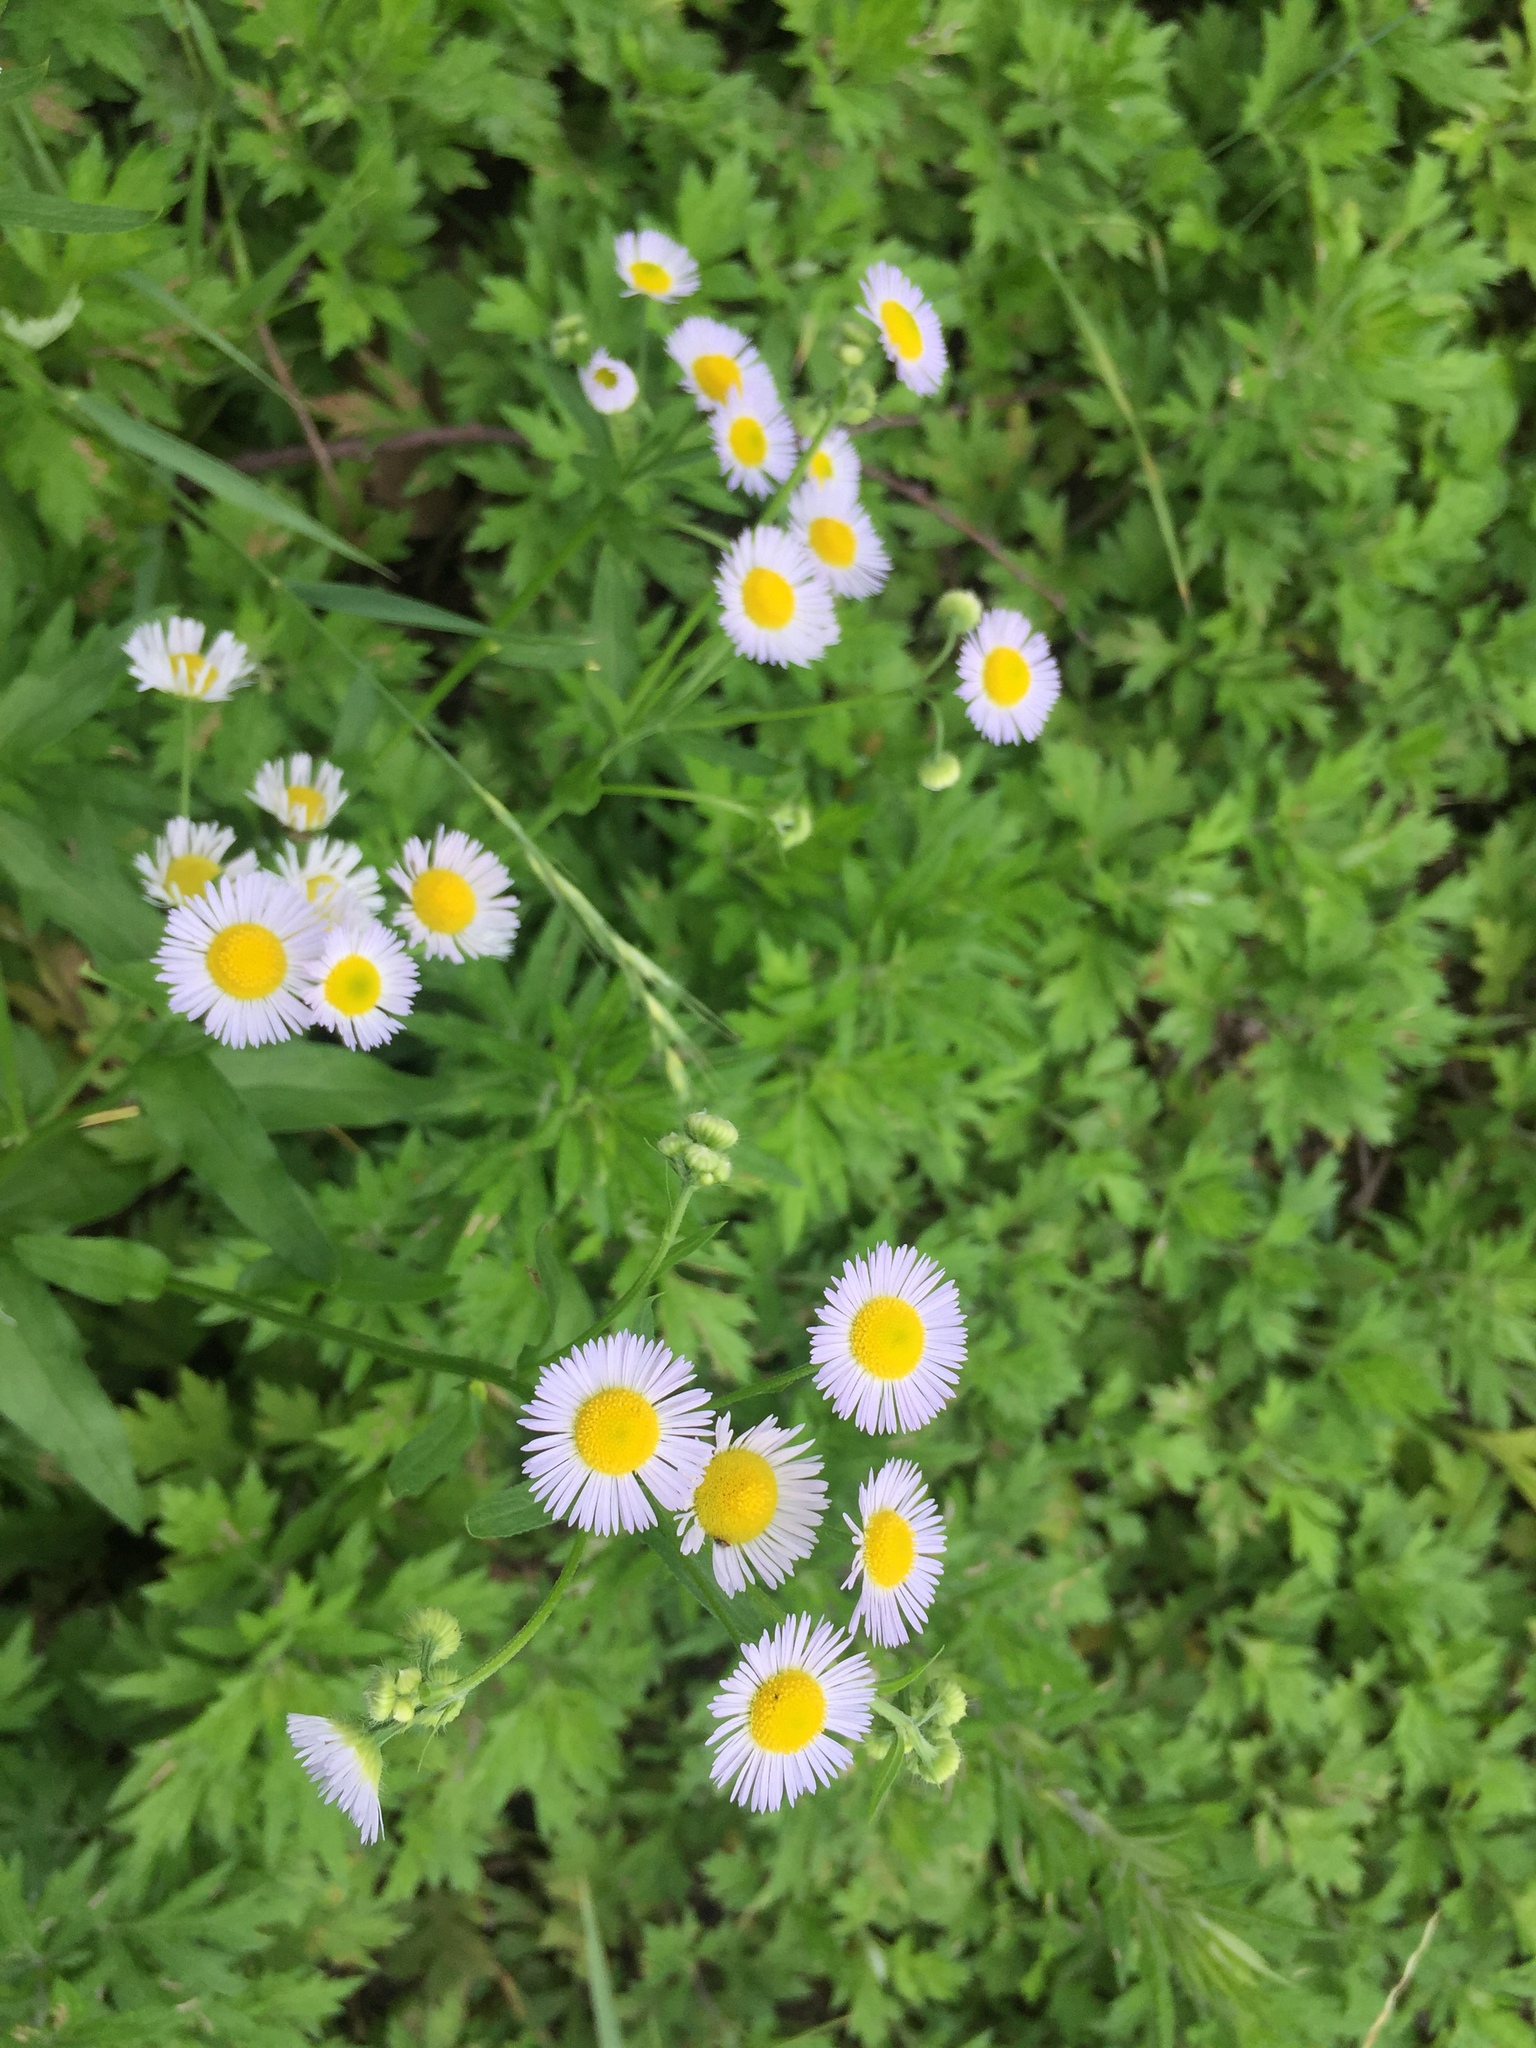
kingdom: Plantae
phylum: Tracheophyta
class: Magnoliopsida
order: Asterales
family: Asteraceae
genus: Erigeron
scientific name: Erigeron annuus
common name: Tall fleabane
